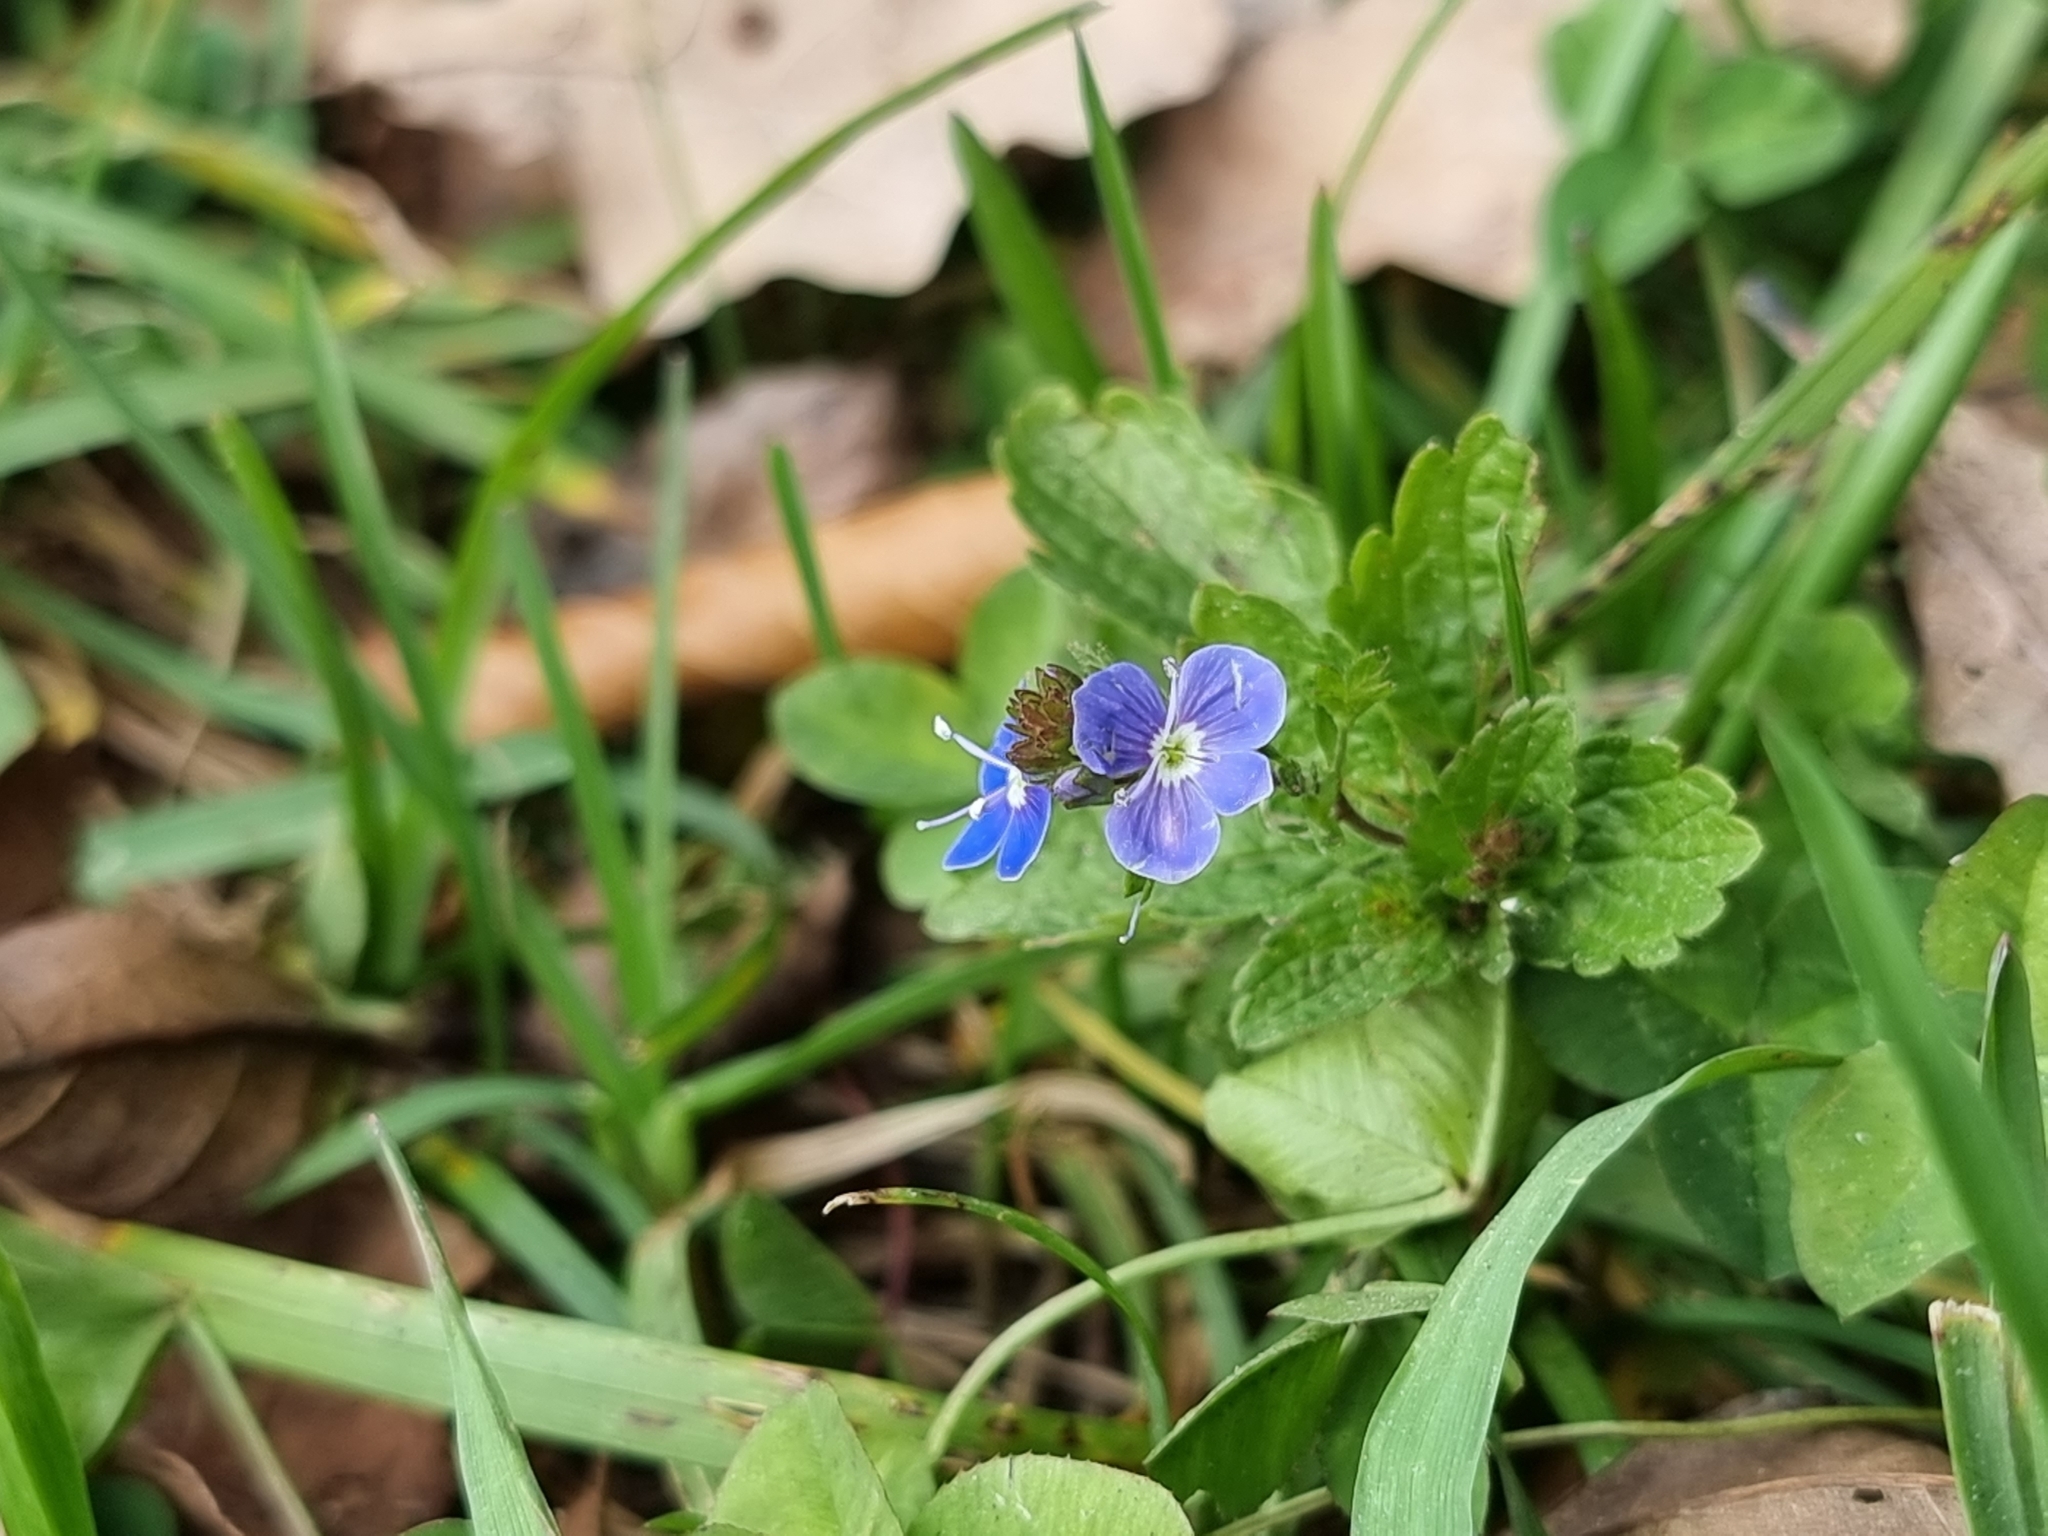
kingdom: Plantae
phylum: Tracheophyta
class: Magnoliopsida
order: Lamiales
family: Plantaginaceae
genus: Veronica
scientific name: Veronica chamaedrys
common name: Germander speedwell
